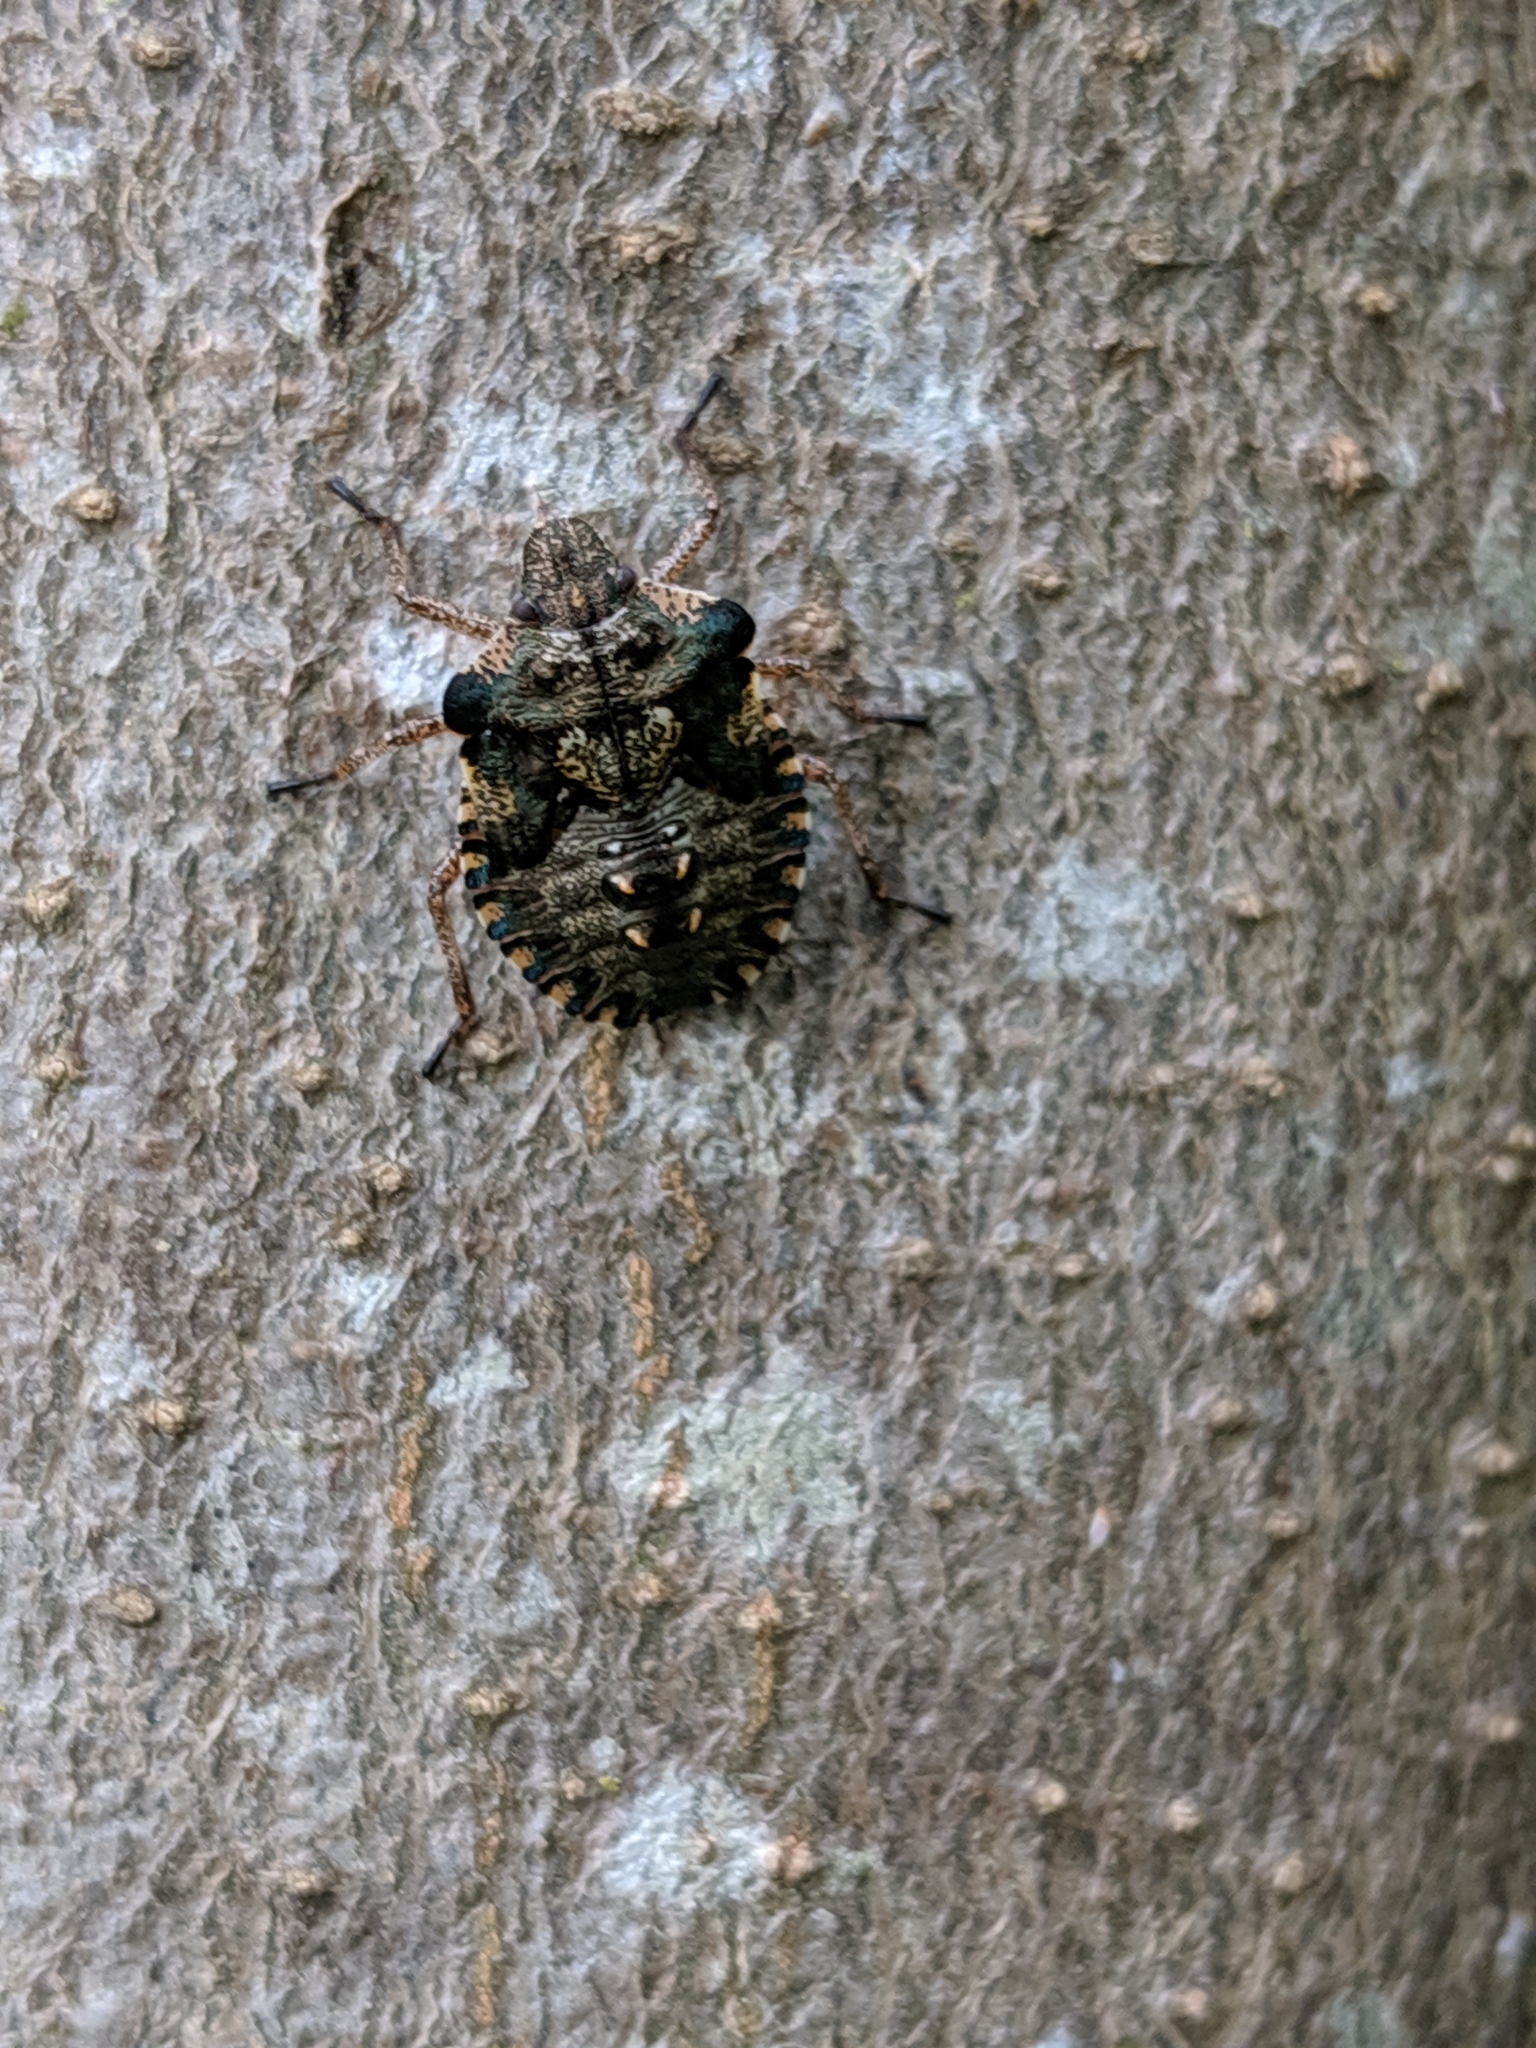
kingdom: Animalia
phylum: Arthropoda
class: Insecta
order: Hemiptera
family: Pentatomidae
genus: Pentatoma
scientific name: Pentatoma rufipes
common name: Forest bug
